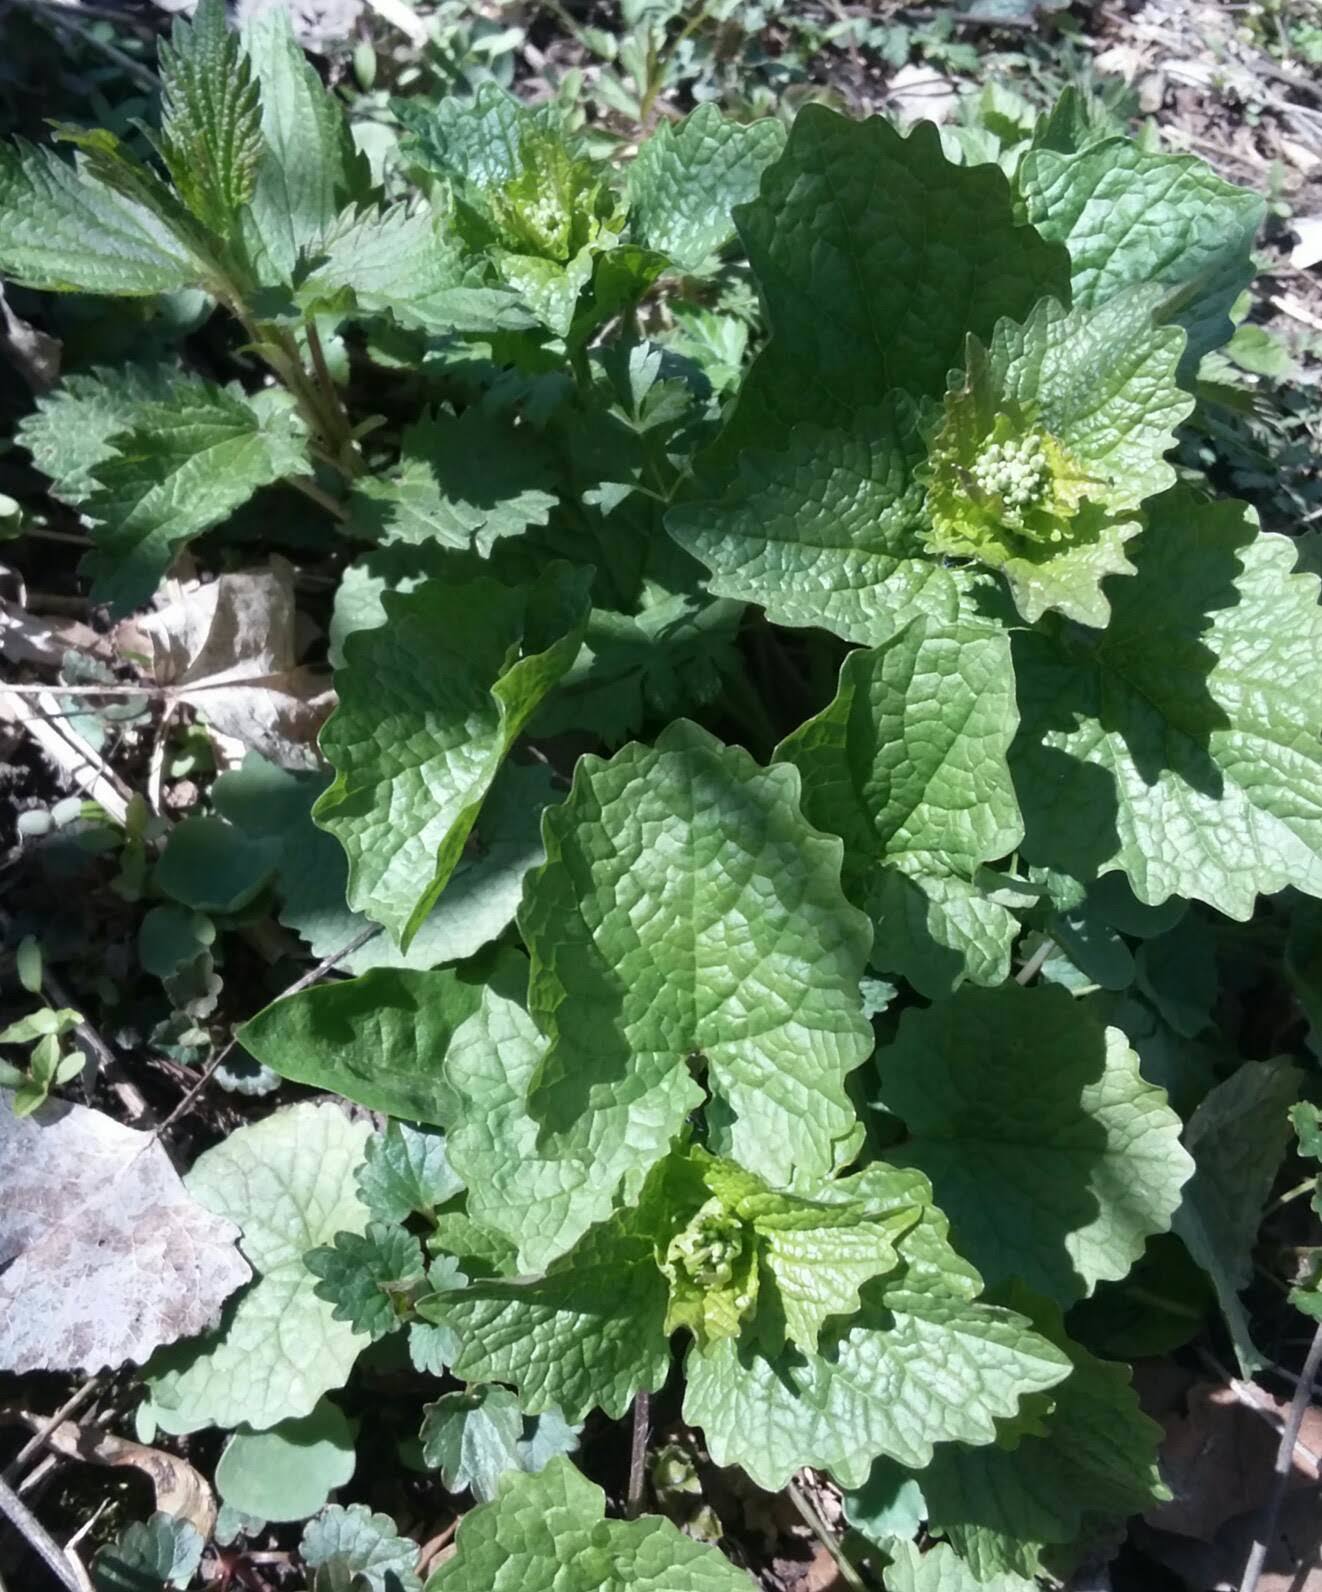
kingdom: Plantae
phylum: Tracheophyta
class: Magnoliopsida
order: Brassicales
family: Brassicaceae
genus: Alliaria
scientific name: Alliaria petiolata
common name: Garlic mustard
